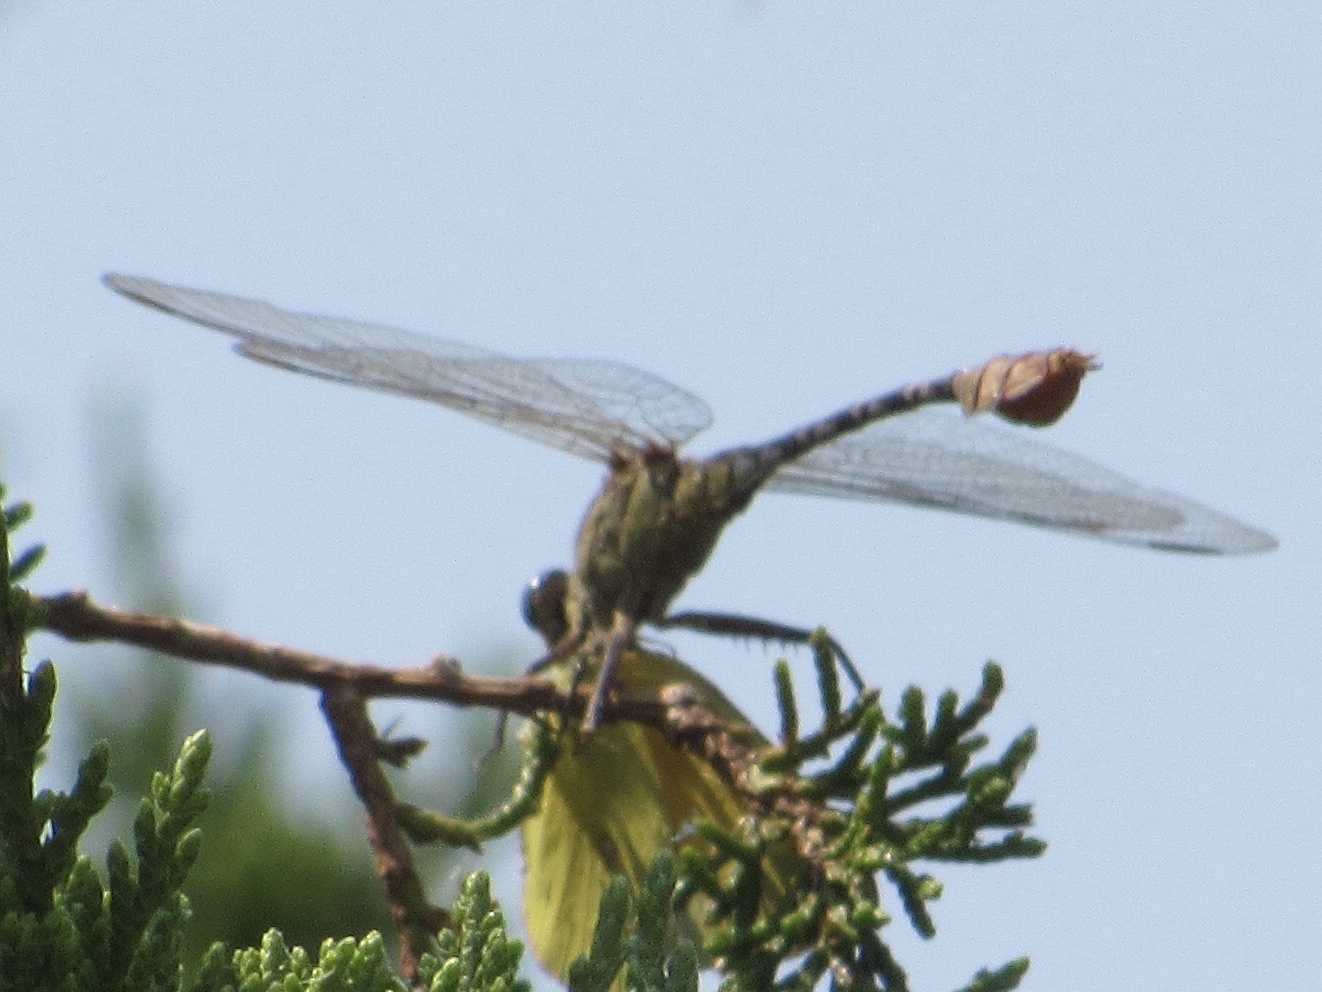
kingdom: Animalia
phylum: Arthropoda
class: Insecta
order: Odonata
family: Gomphidae
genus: Dromogomphus
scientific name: Dromogomphus spoliatus
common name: Flag-tailed spinyleg
